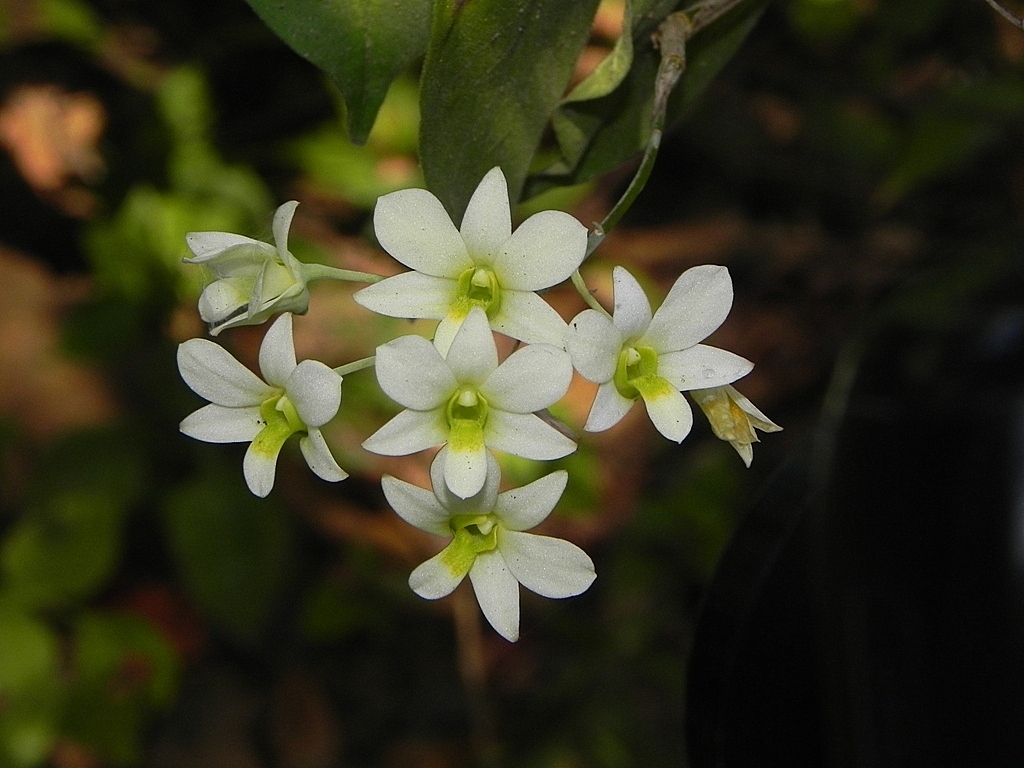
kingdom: Plantae
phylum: Tracheophyta
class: Liliopsida
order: Asparagales
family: Orchidaceae
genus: Dendrobium
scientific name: Dendrobium ovatum
